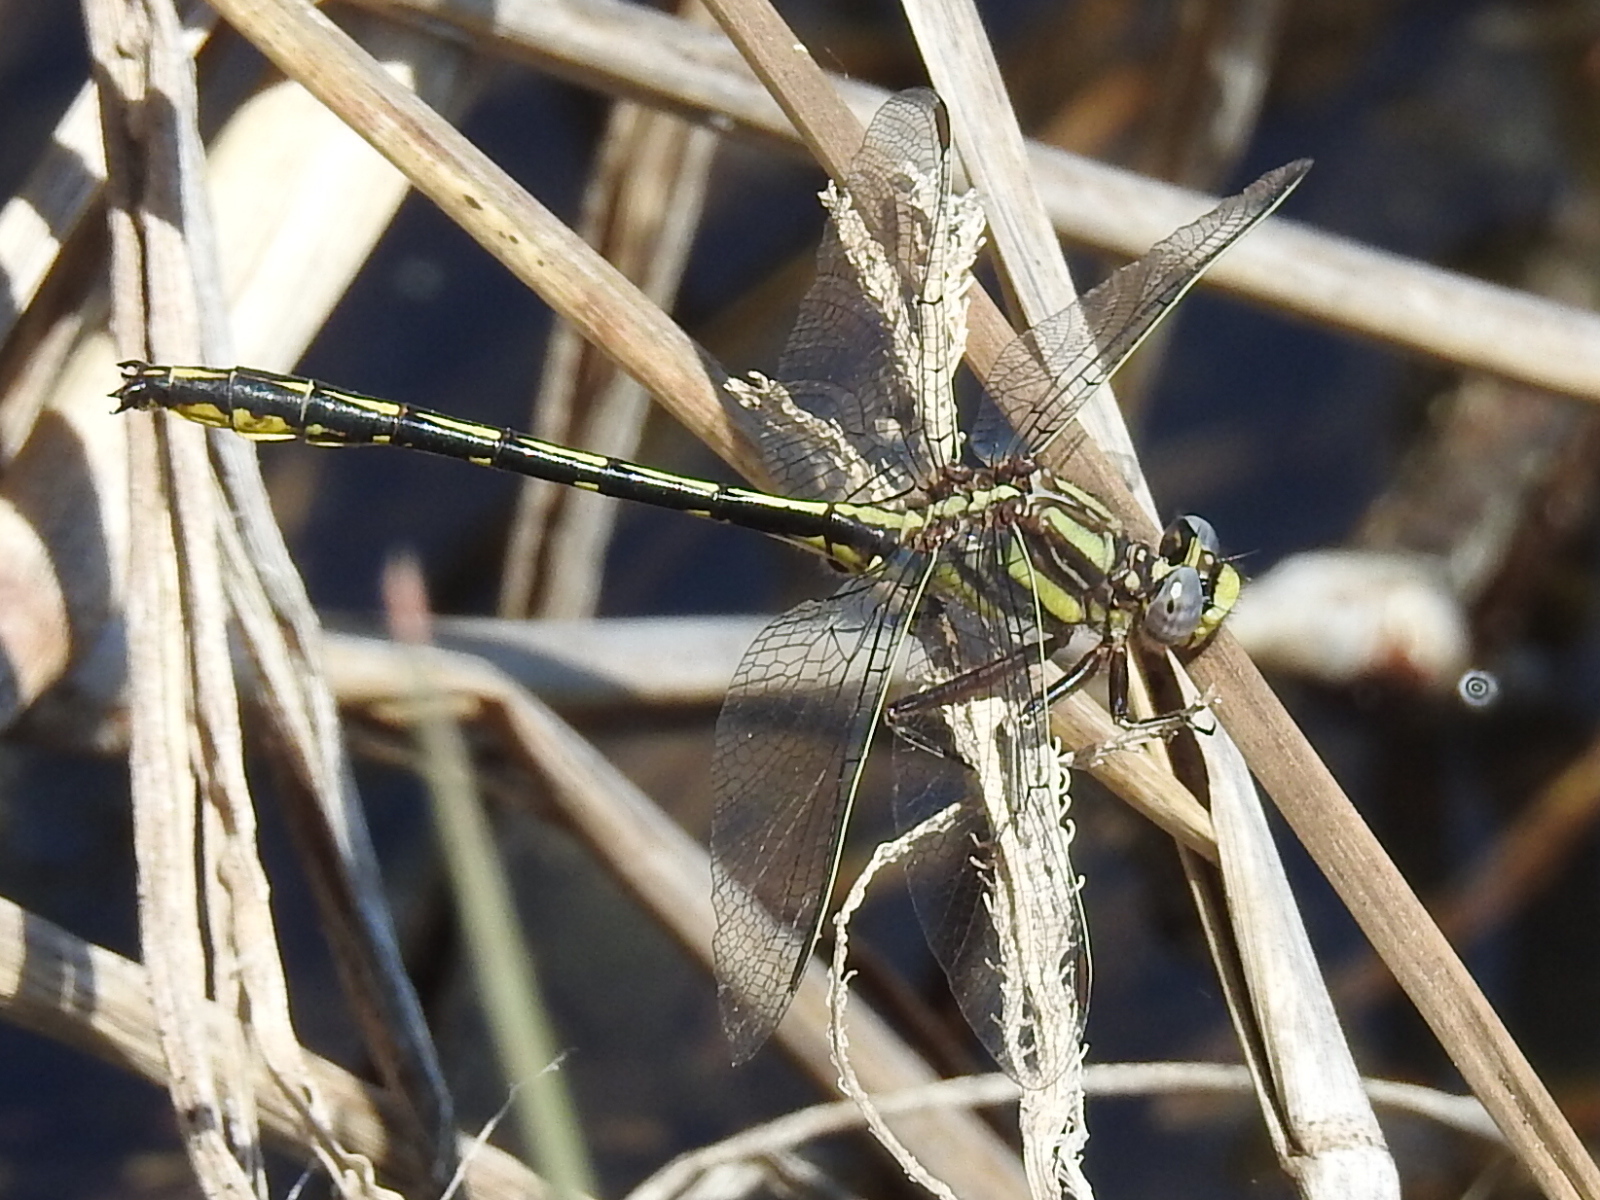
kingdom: Animalia
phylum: Arthropoda
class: Insecta
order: Odonata
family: Gomphidae
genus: Phanogomphus
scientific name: Phanogomphus oklahomensis
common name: Oklahoma clubtail
